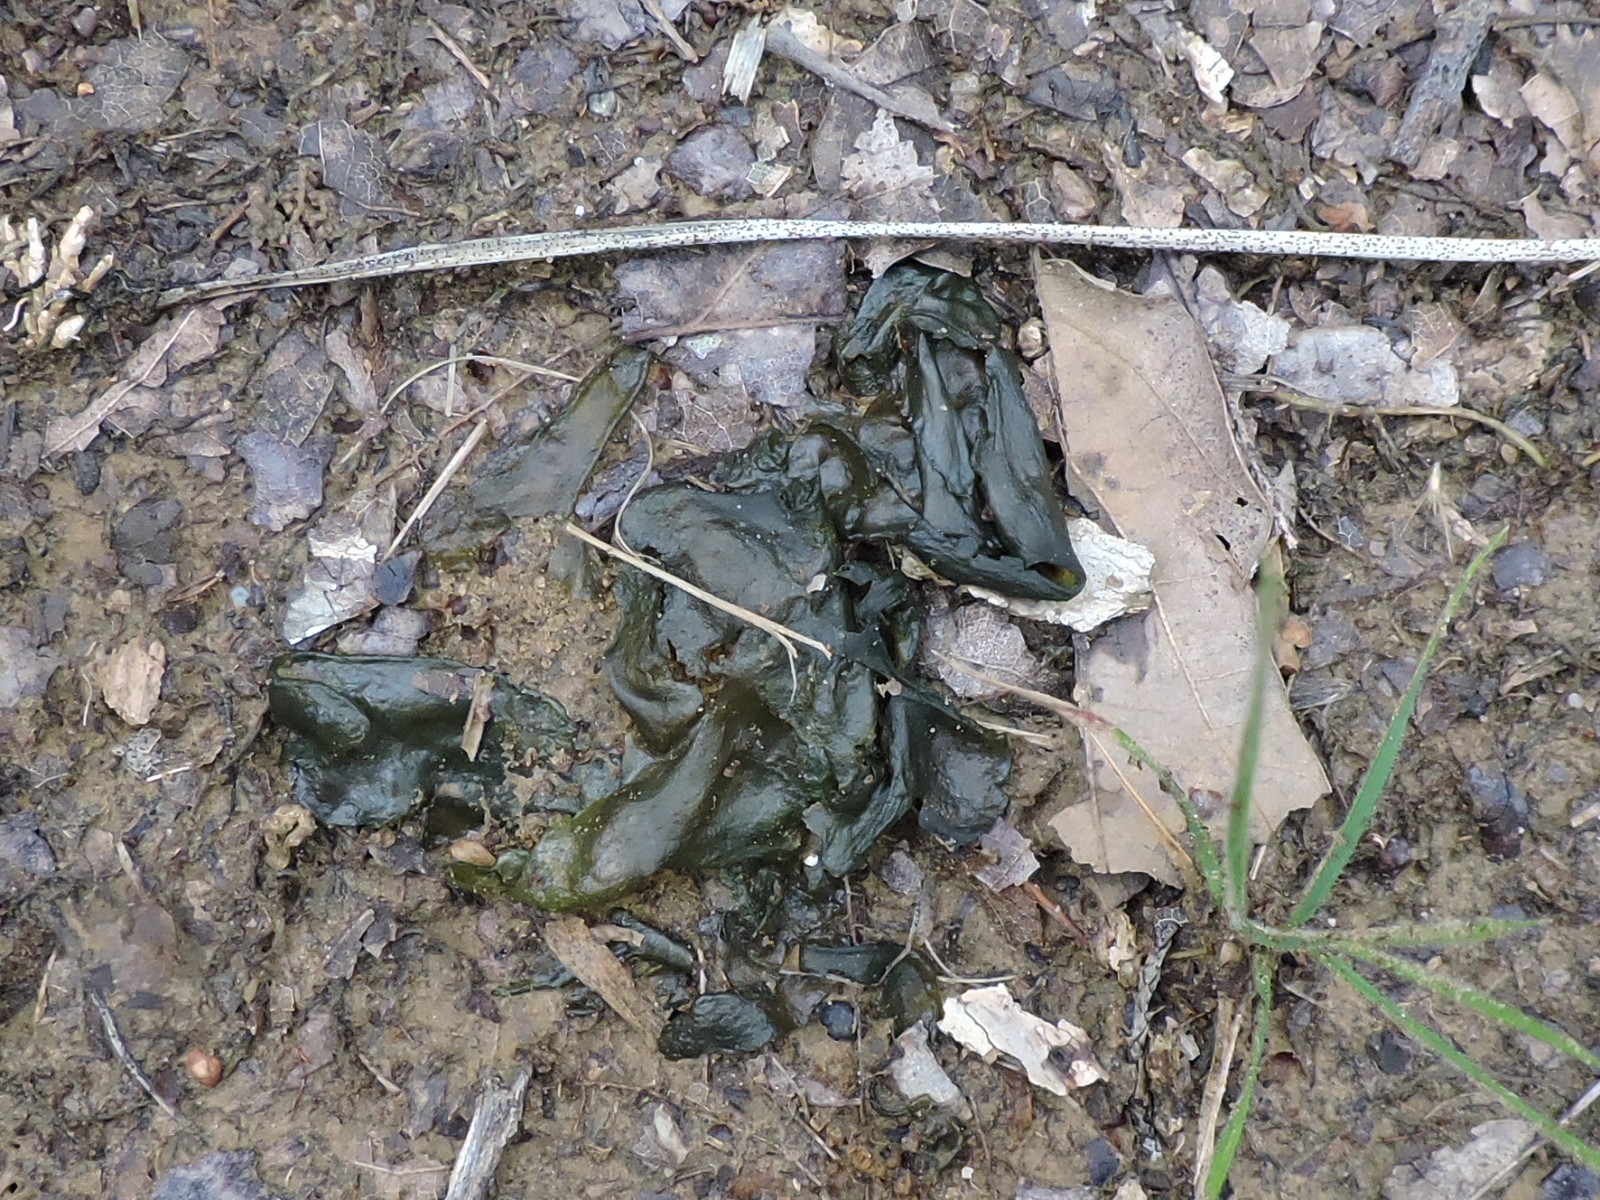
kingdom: Bacteria
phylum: Cyanobacteria
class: Cyanobacteriia
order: Cyanobacteriales
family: Nostocaceae
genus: Nostoc
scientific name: Nostoc commune
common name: Star jelly
